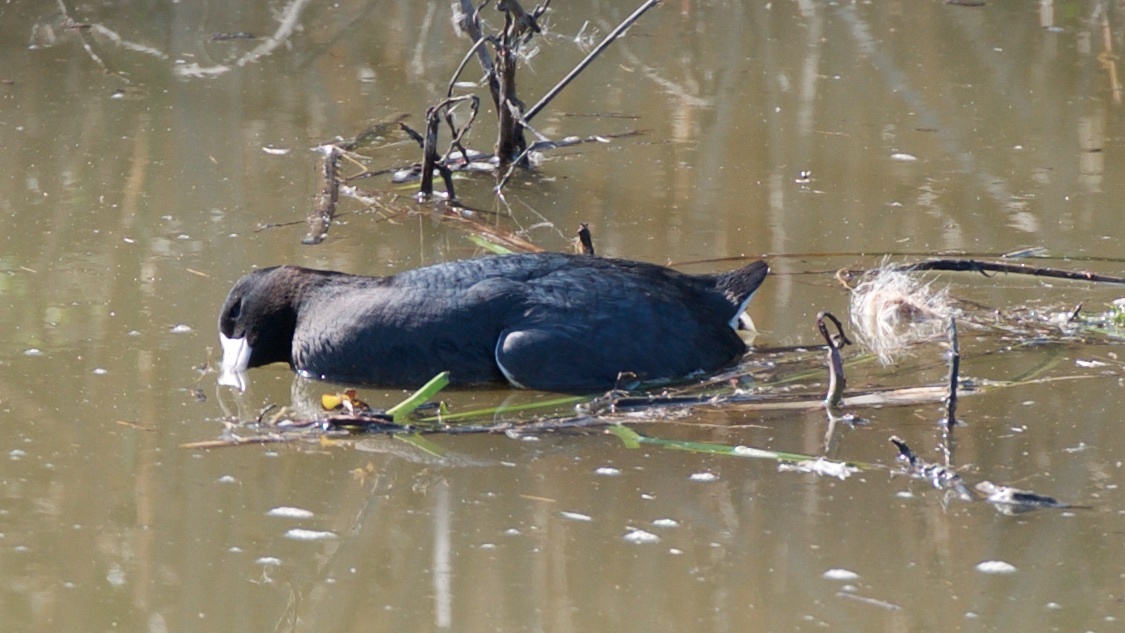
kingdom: Animalia
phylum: Chordata
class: Aves
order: Gruiformes
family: Rallidae
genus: Fulica
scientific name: Fulica americana
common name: American coot
